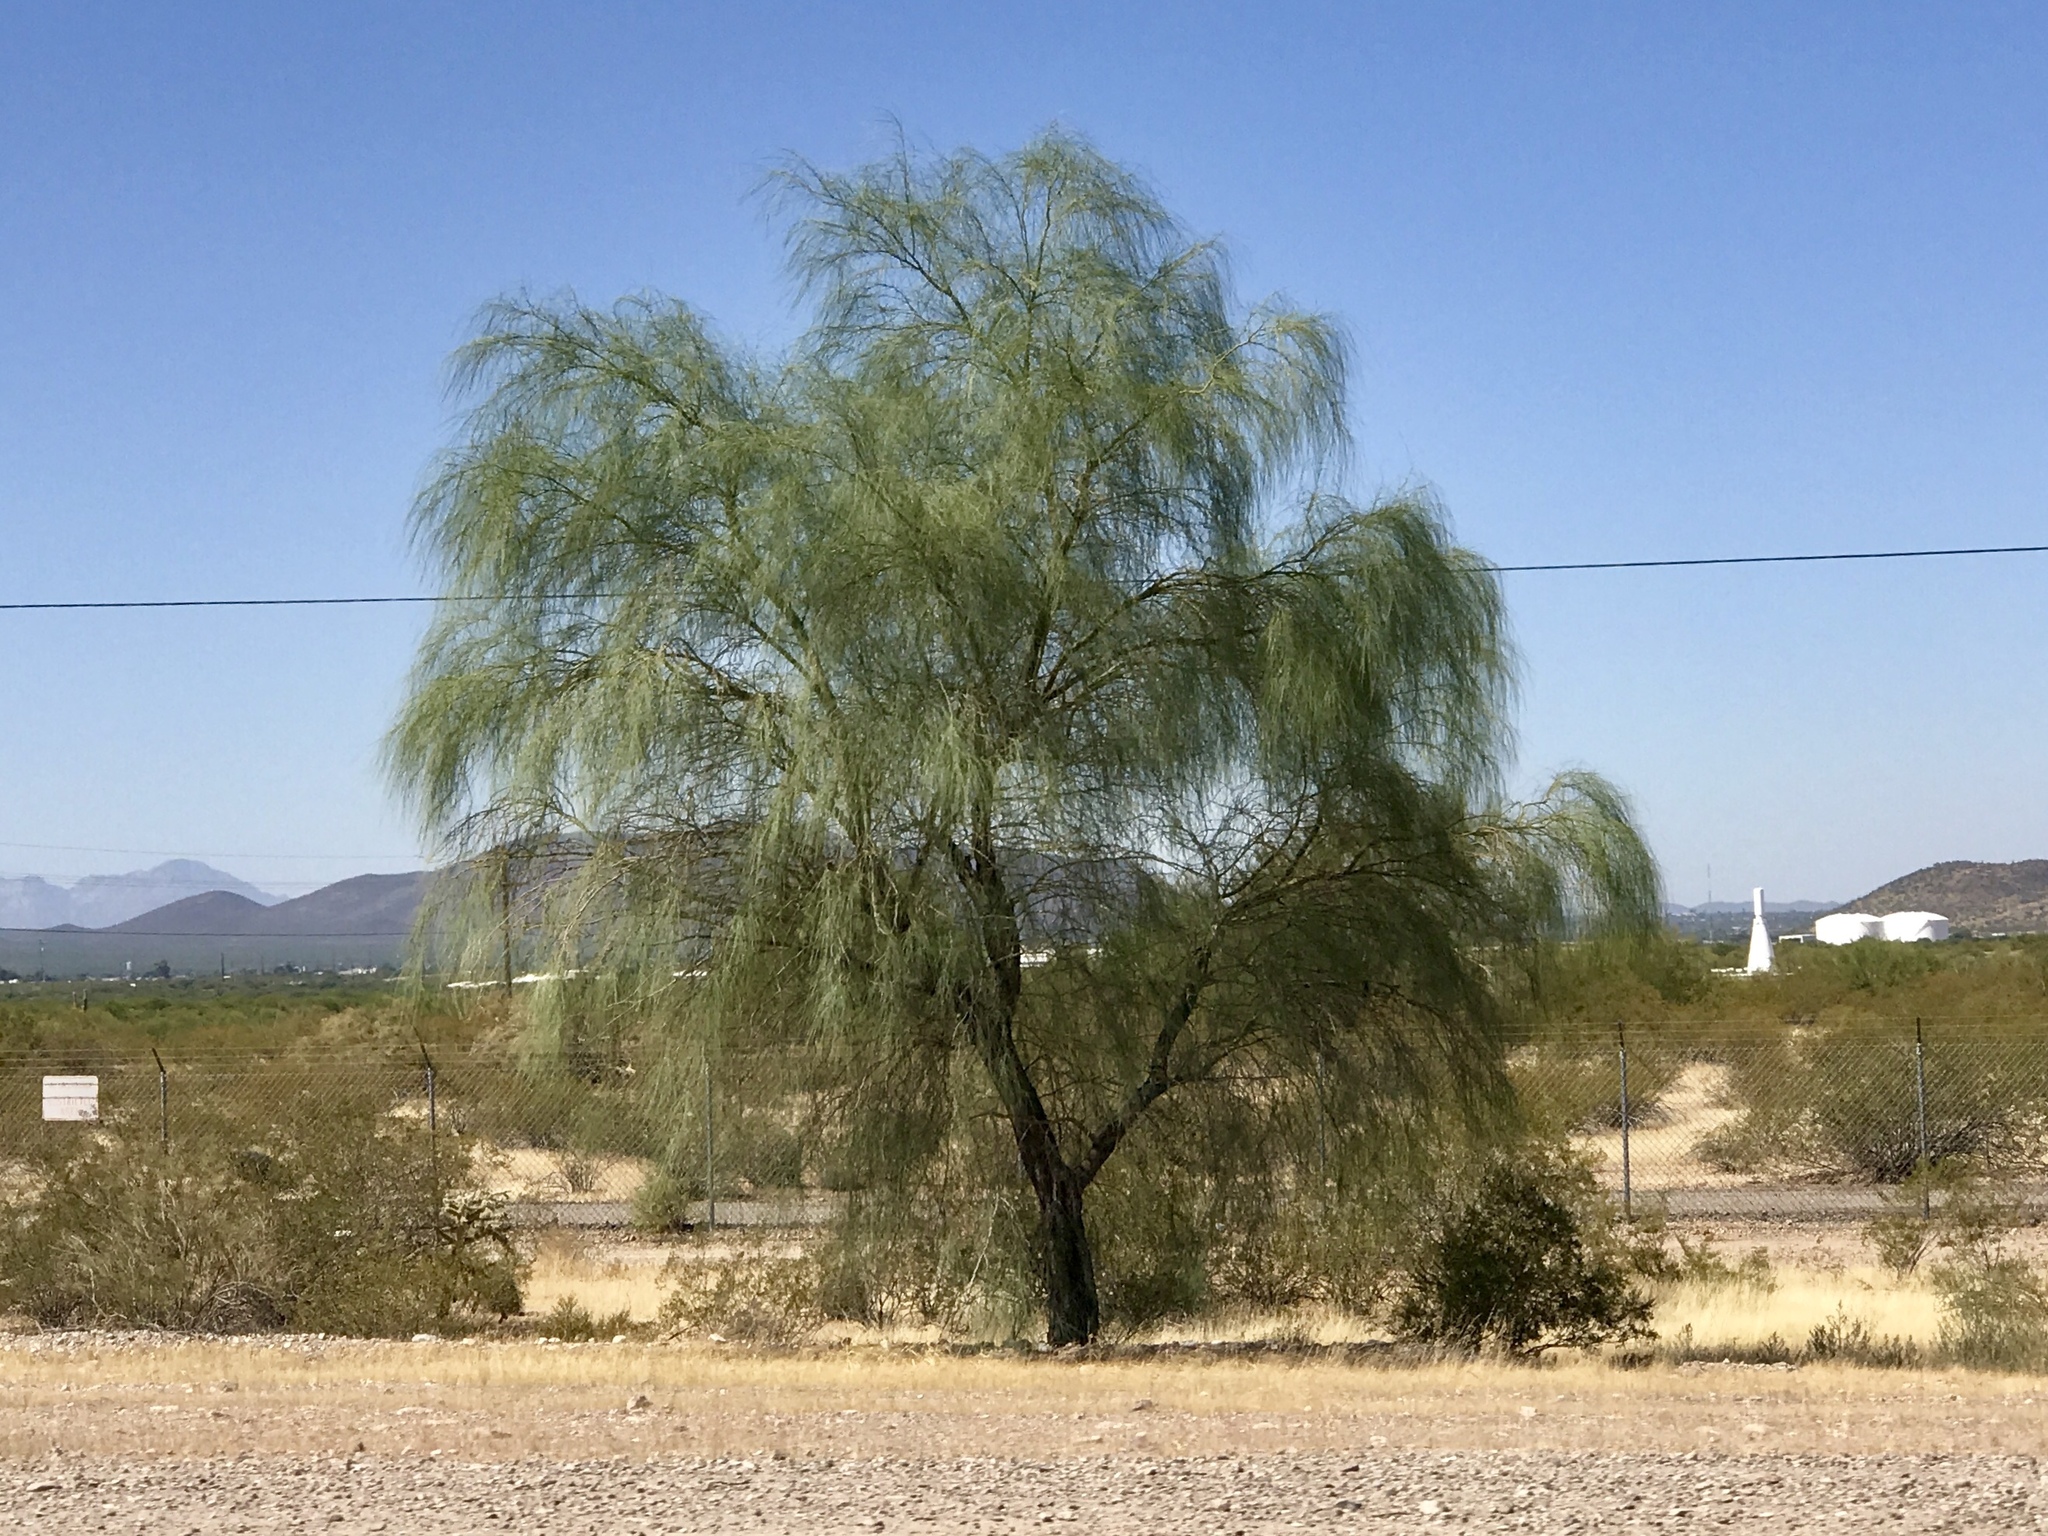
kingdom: Plantae
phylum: Tracheophyta
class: Magnoliopsida
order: Fabales
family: Fabaceae
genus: Parkinsonia
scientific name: Parkinsonia aculeata
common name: Jerusalem thorn
